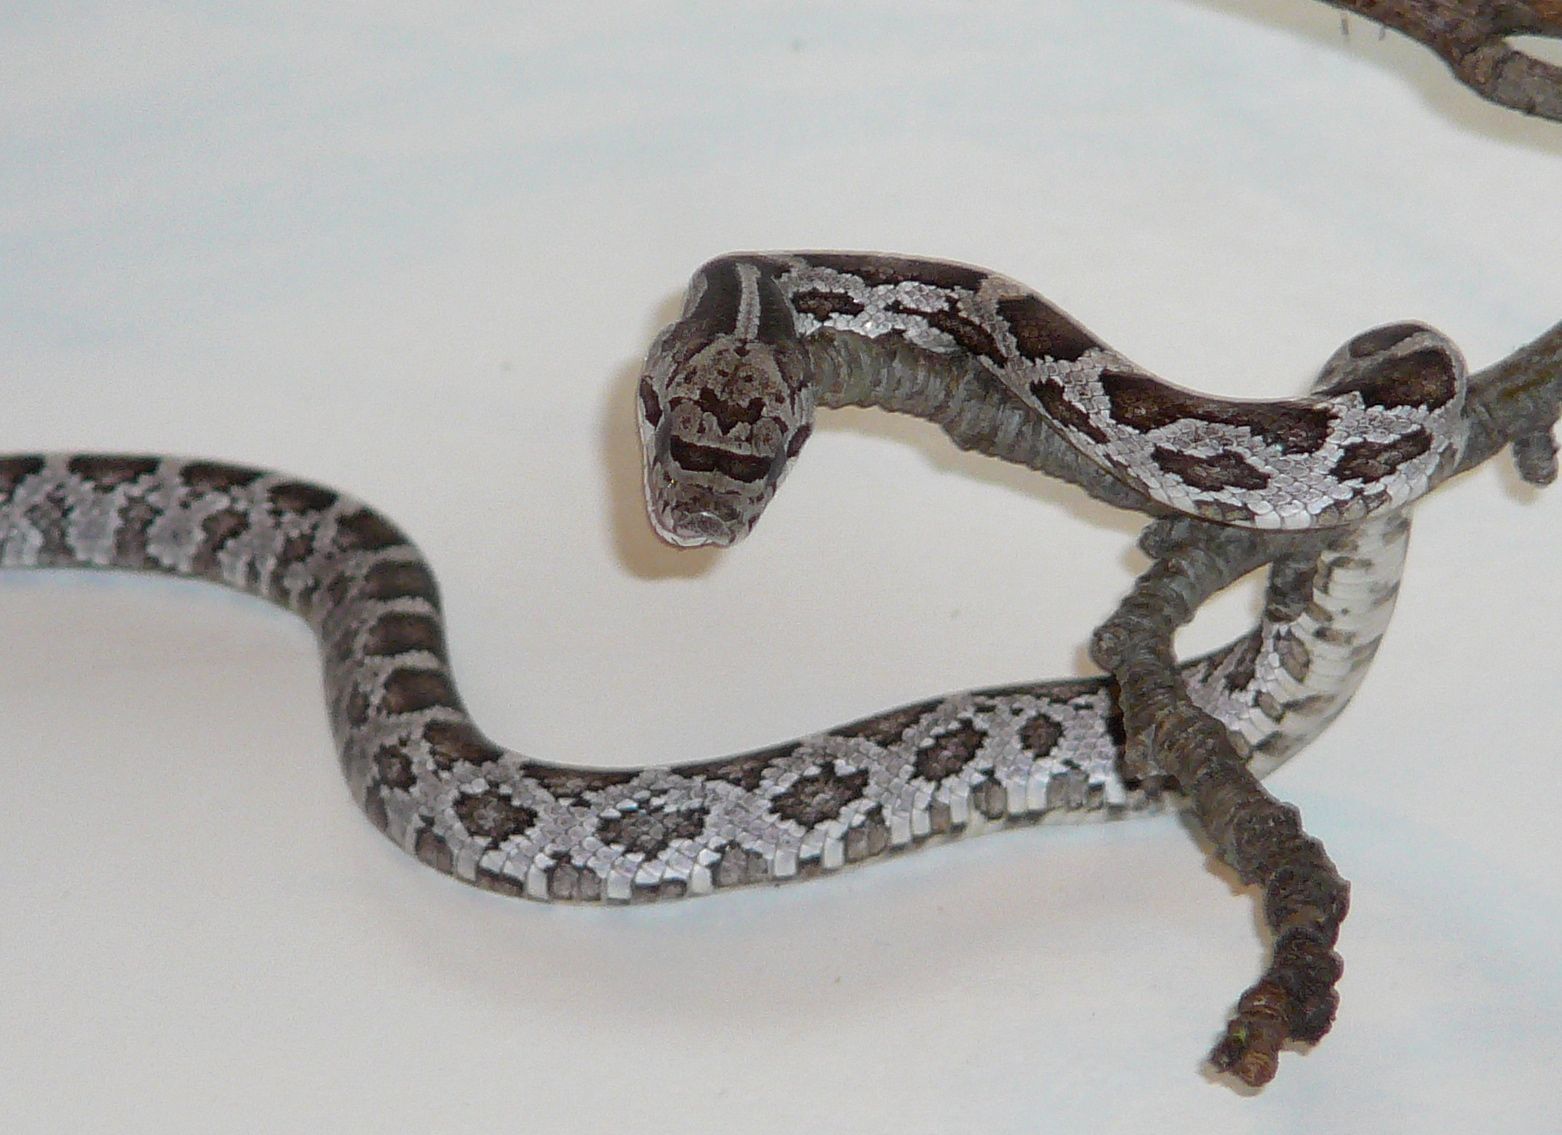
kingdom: Animalia
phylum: Chordata
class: Squamata
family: Colubridae
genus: Pantherophis
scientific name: Pantherophis alleghaniensis
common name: Eastern rat snake
